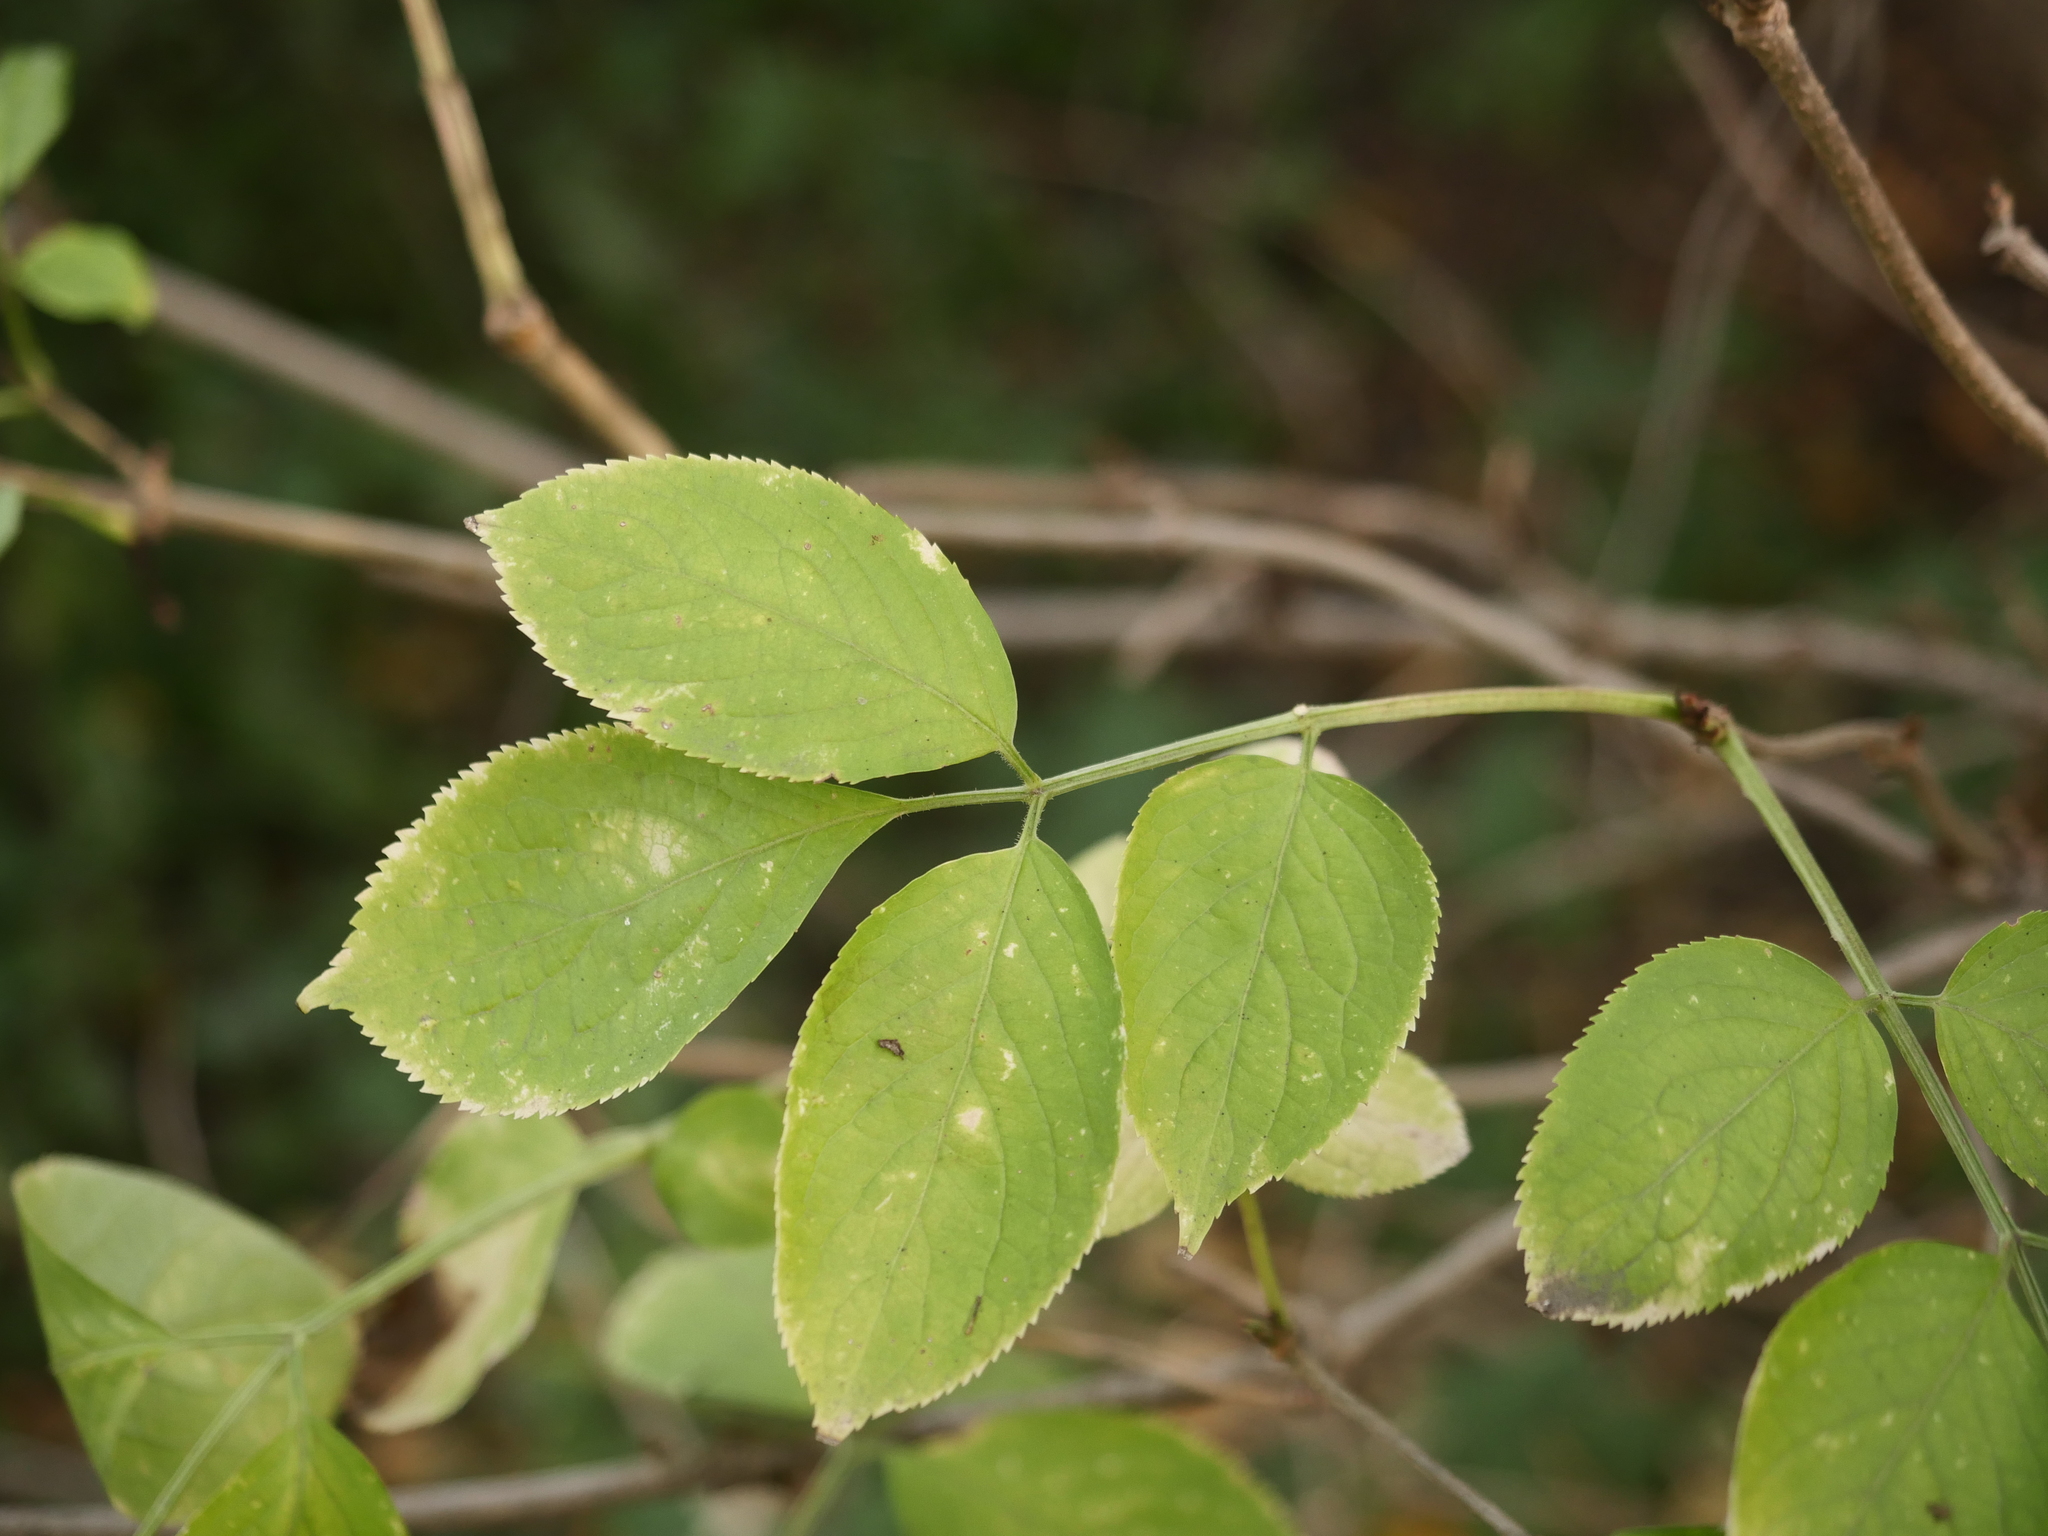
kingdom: Plantae
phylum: Tracheophyta
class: Magnoliopsida
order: Dipsacales
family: Viburnaceae
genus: Sambucus
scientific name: Sambucus nigra
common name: Elder
